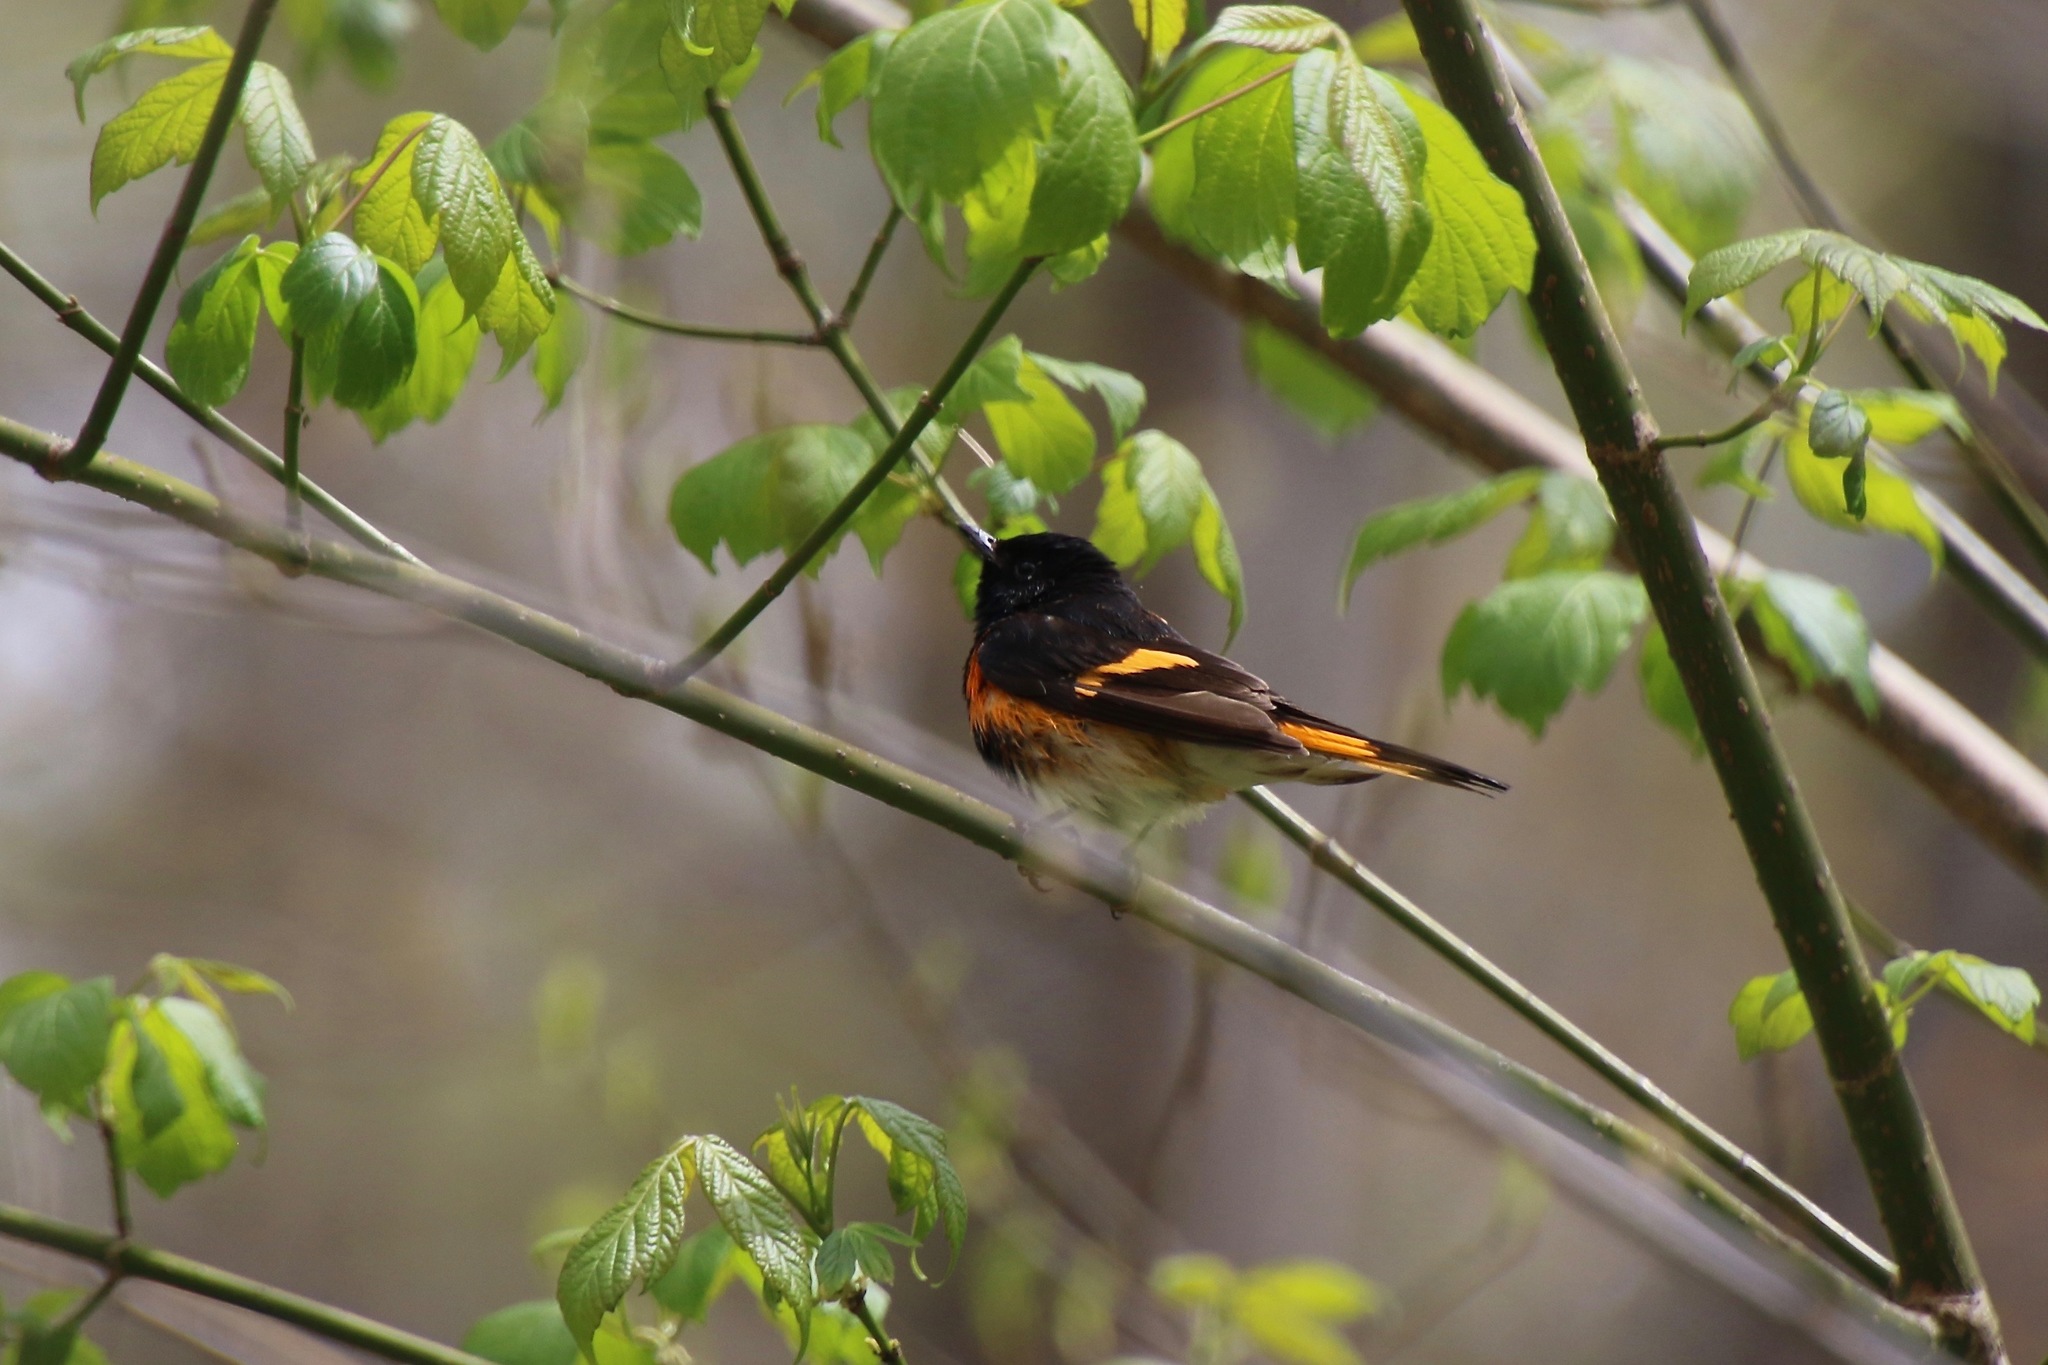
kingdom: Animalia
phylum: Chordata
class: Aves
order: Passeriformes
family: Parulidae
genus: Setophaga
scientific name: Setophaga ruticilla
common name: American redstart
